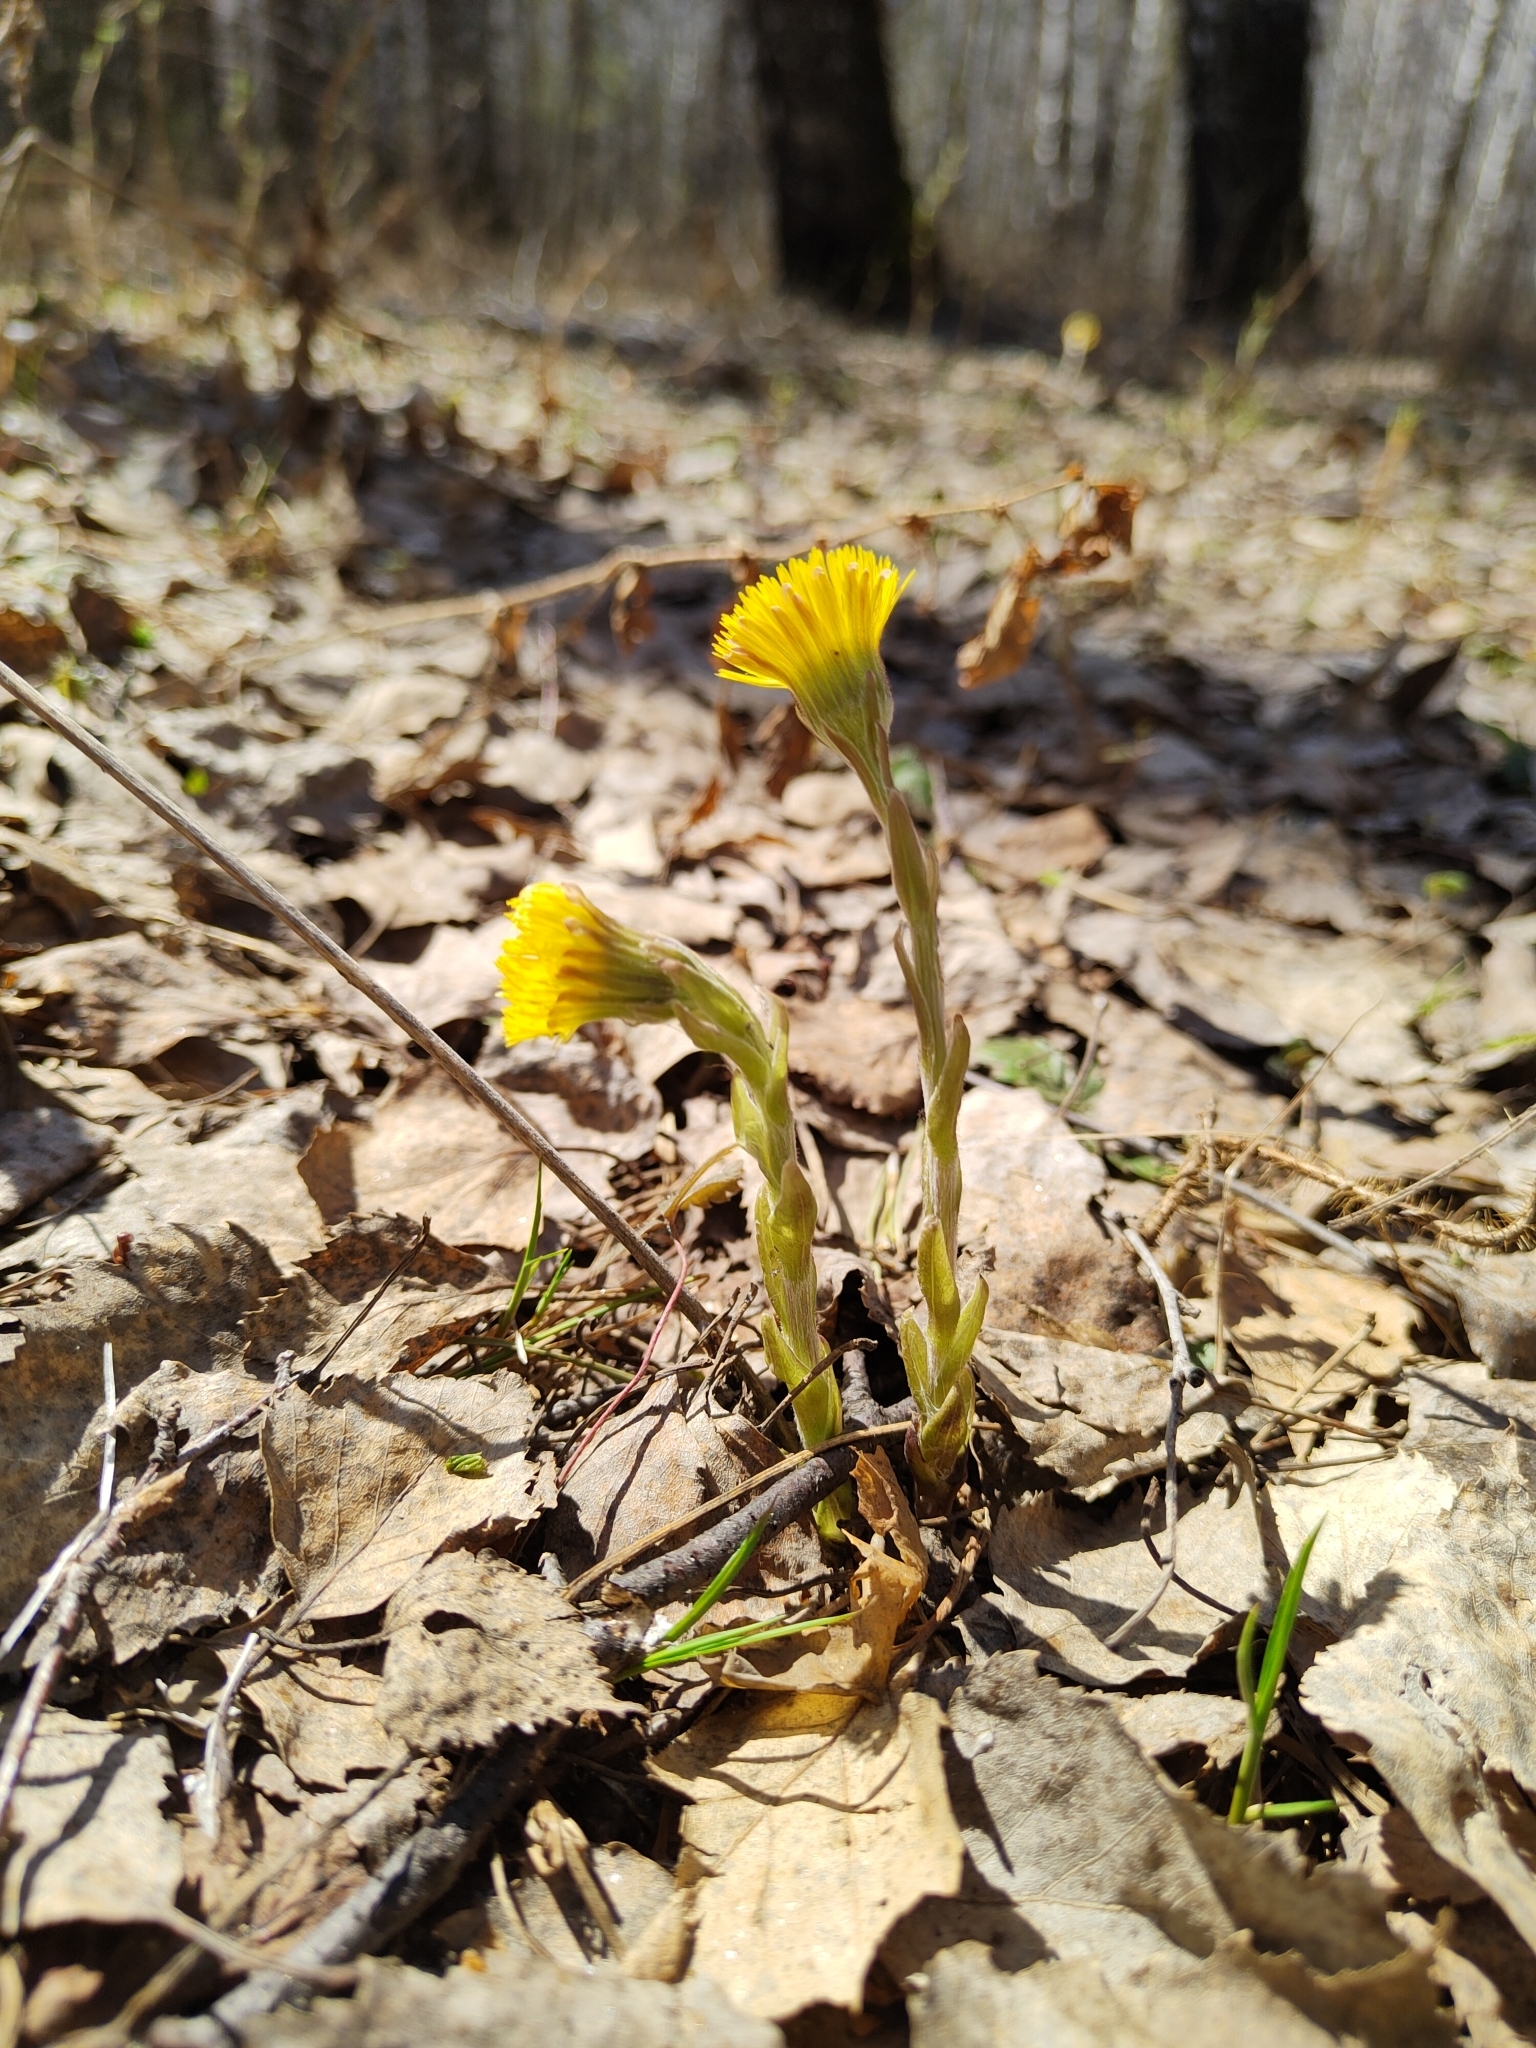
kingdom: Plantae
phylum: Tracheophyta
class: Magnoliopsida
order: Asterales
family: Asteraceae
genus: Tussilago
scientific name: Tussilago farfara
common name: Coltsfoot
